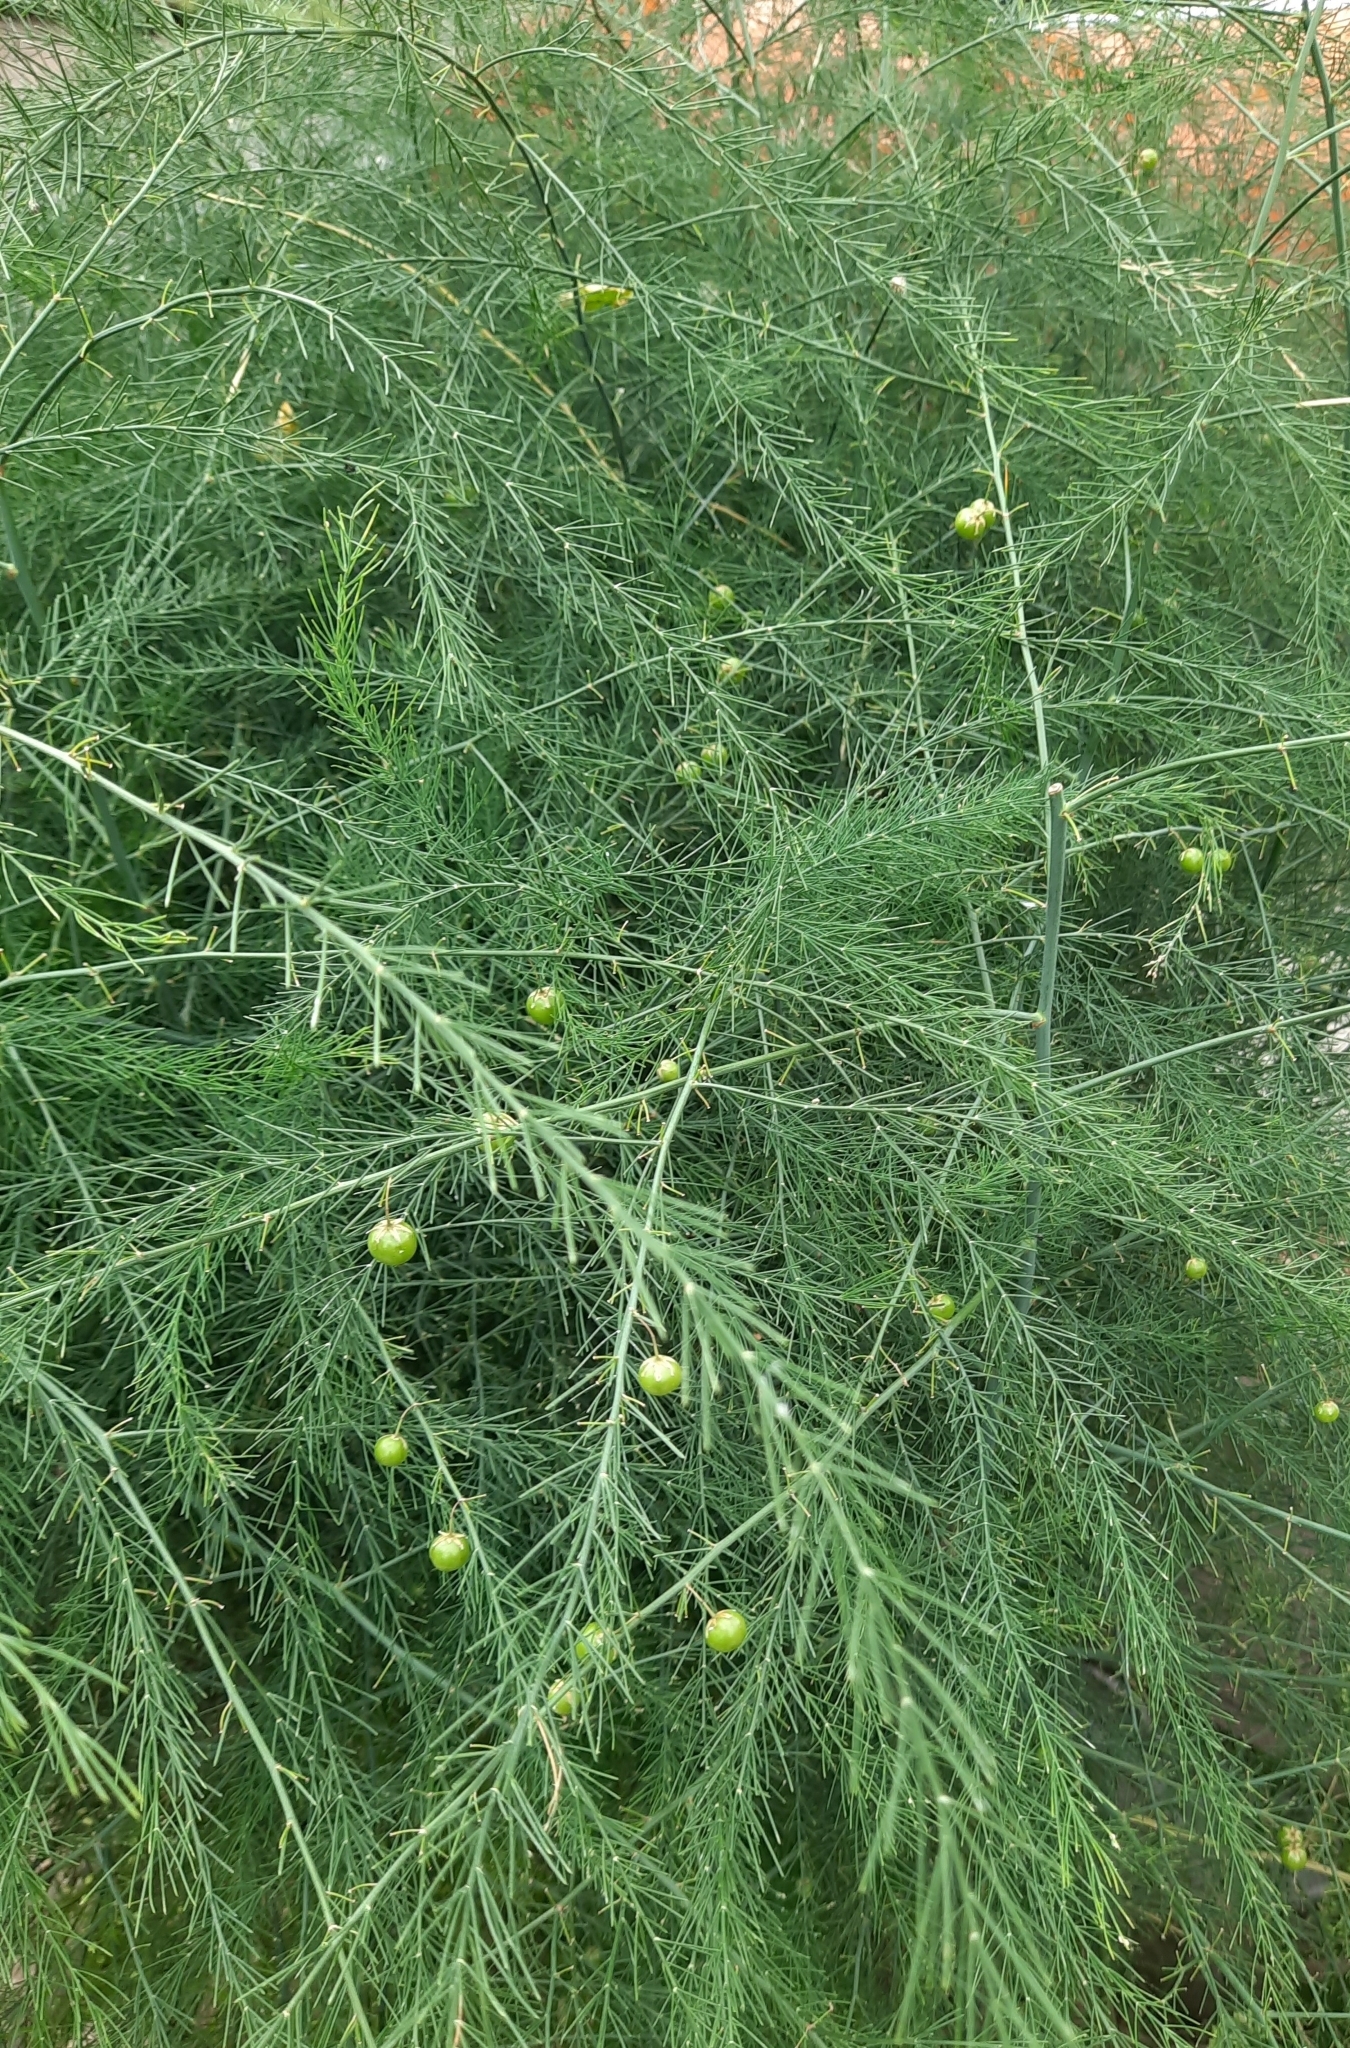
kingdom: Plantae
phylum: Tracheophyta
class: Liliopsida
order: Asparagales
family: Asparagaceae
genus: Asparagus
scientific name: Asparagus officinalis
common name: Garden asparagus
